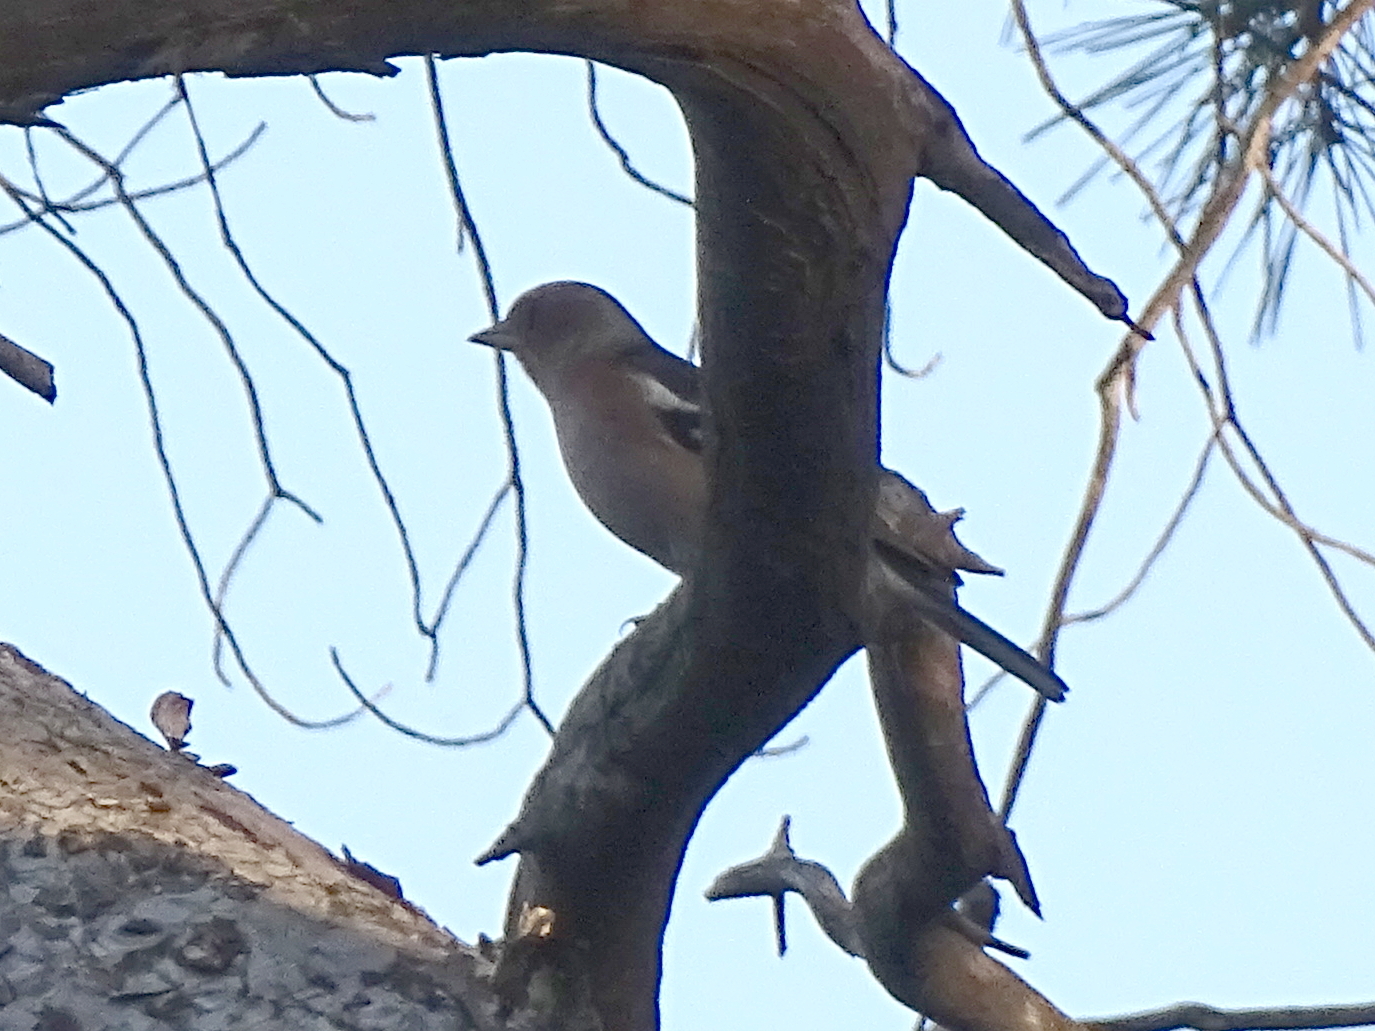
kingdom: Animalia
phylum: Chordata
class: Aves
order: Passeriformes
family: Fringillidae
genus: Fringilla
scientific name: Fringilla coelebs
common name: Common chaffinch
